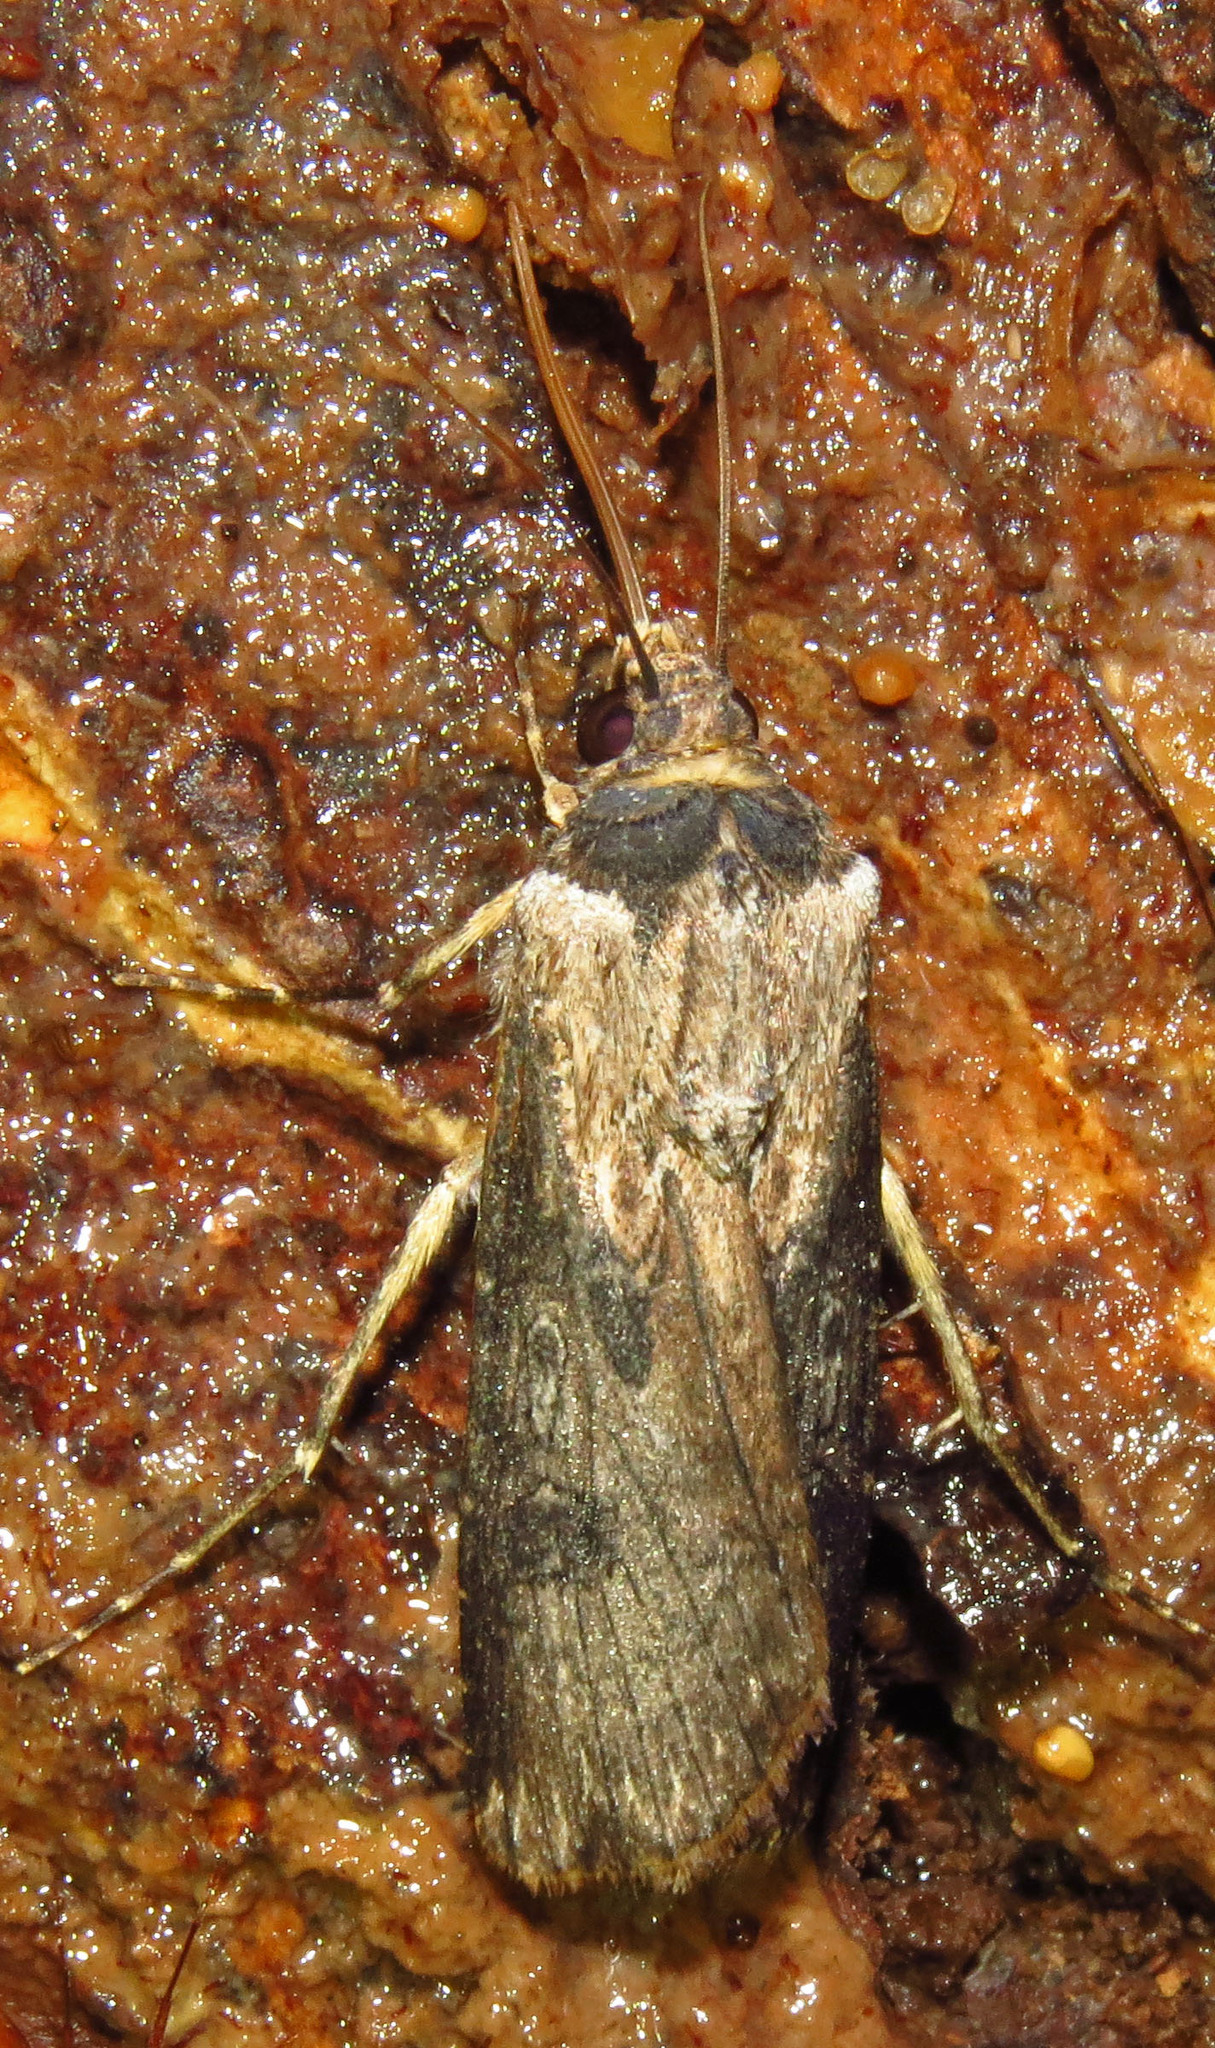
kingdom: Animalia
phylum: Arthropoda
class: Insecta
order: Lepidoptera
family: Noctuidae
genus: Agrotis
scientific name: Agrotis malefida
